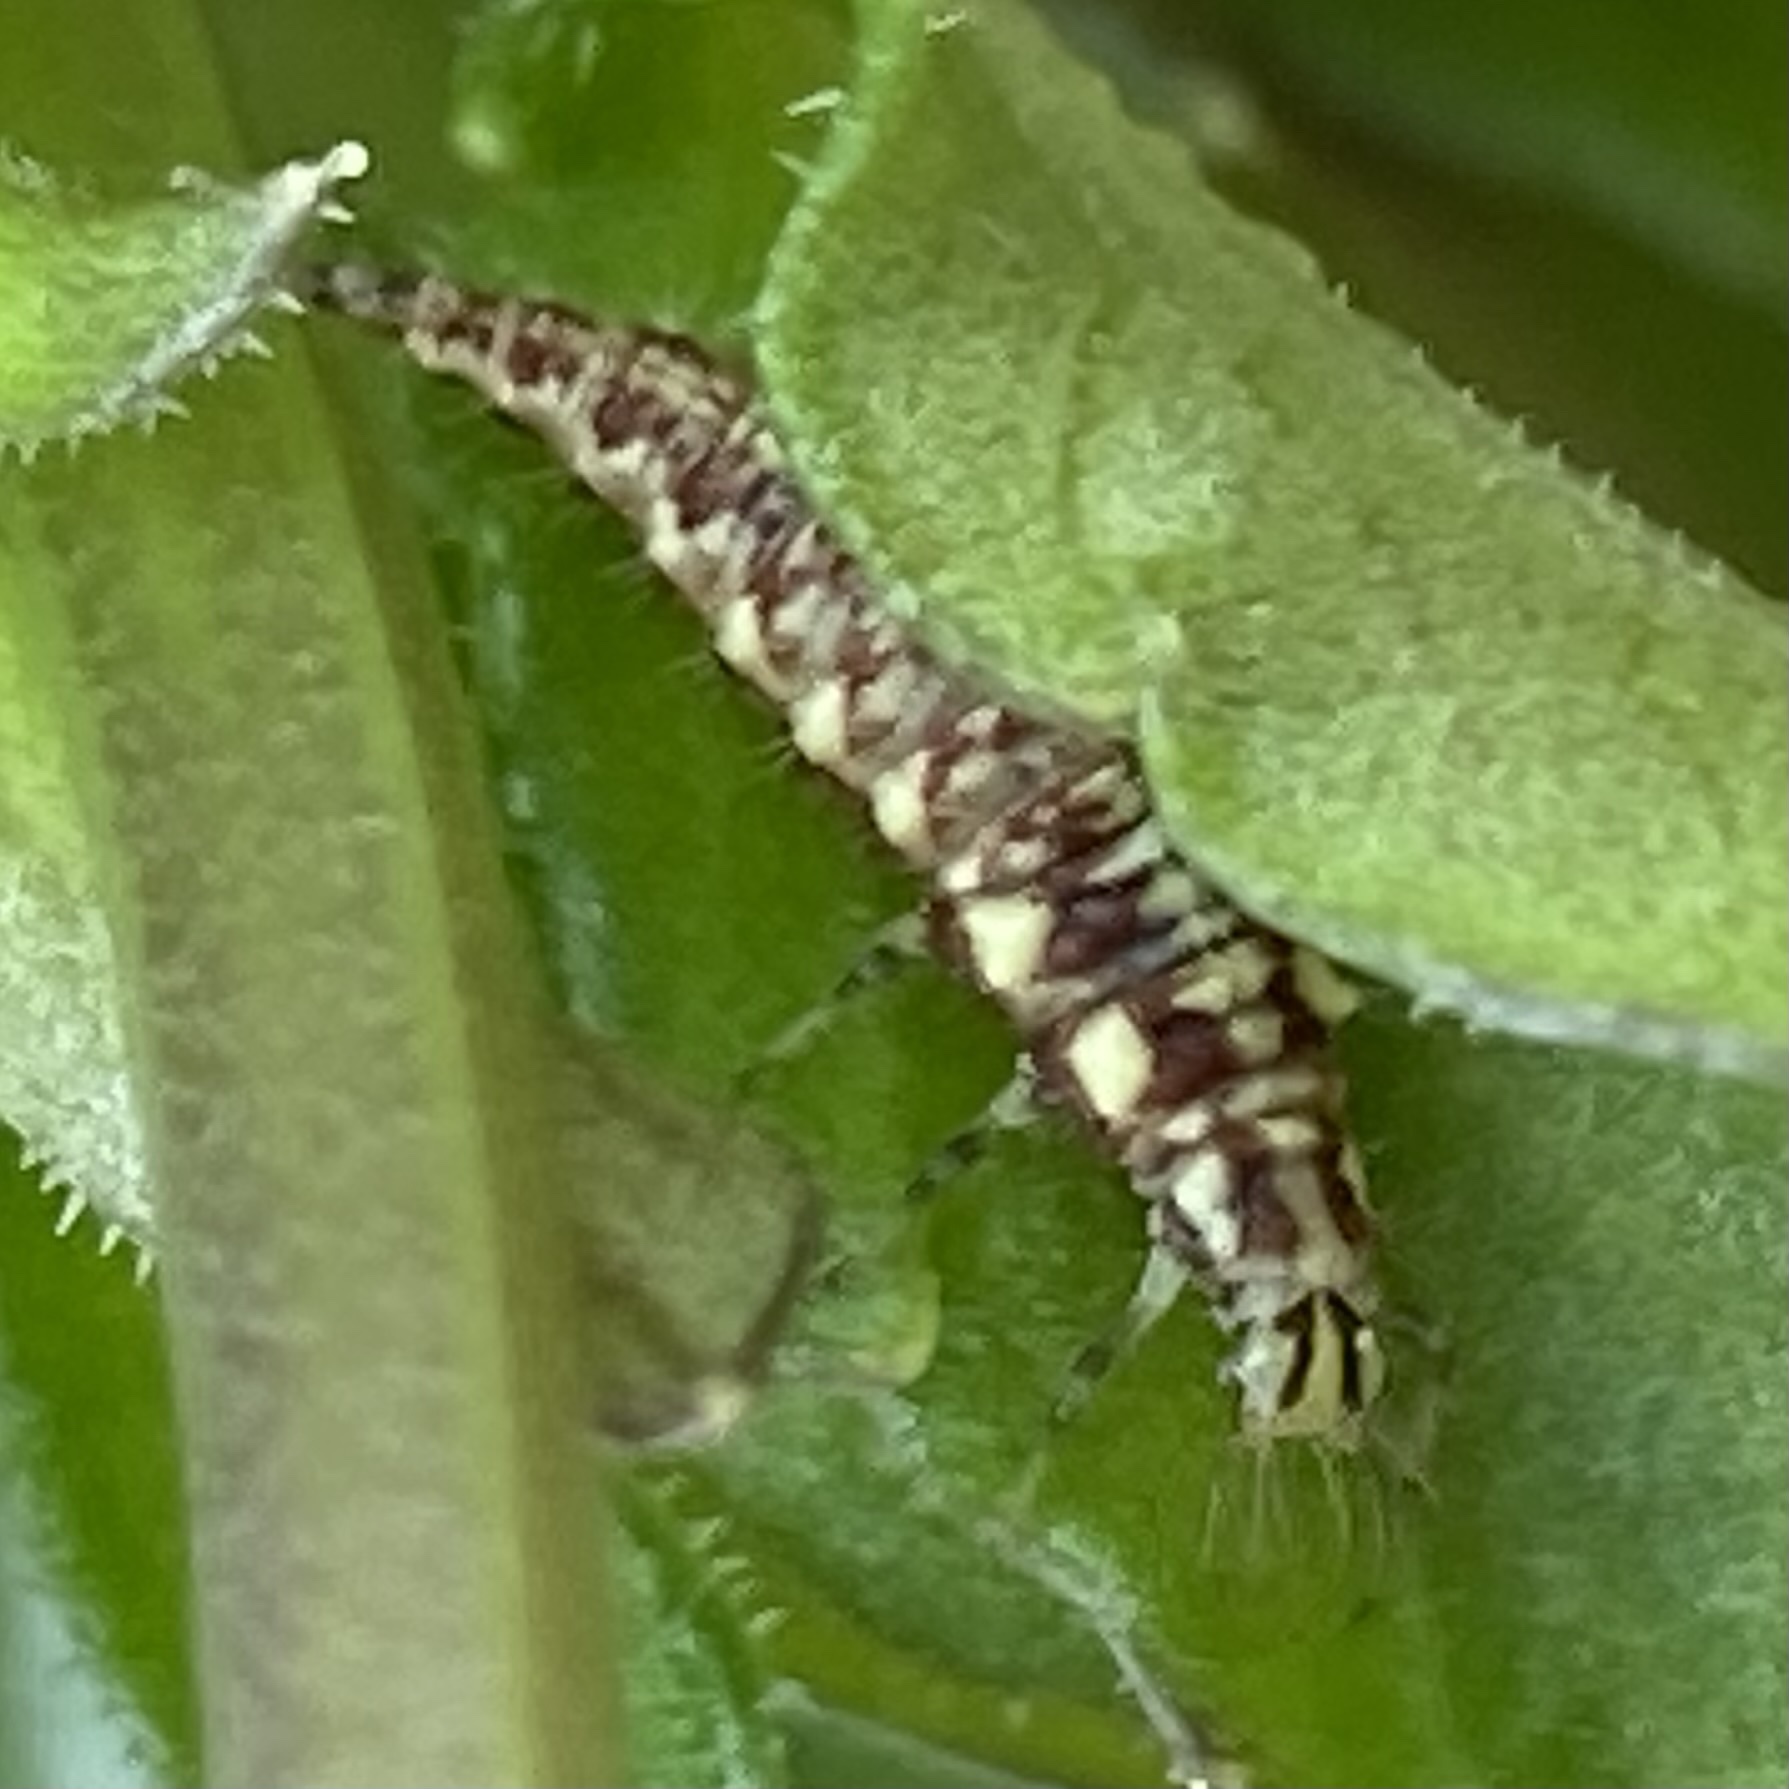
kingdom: Animalia
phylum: Arthropoda
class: Insecta
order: Neuroptera
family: Chrysopidae
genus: Chrysoperla
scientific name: Chrysoperla rufilabris
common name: Red-lipped green lacewing
